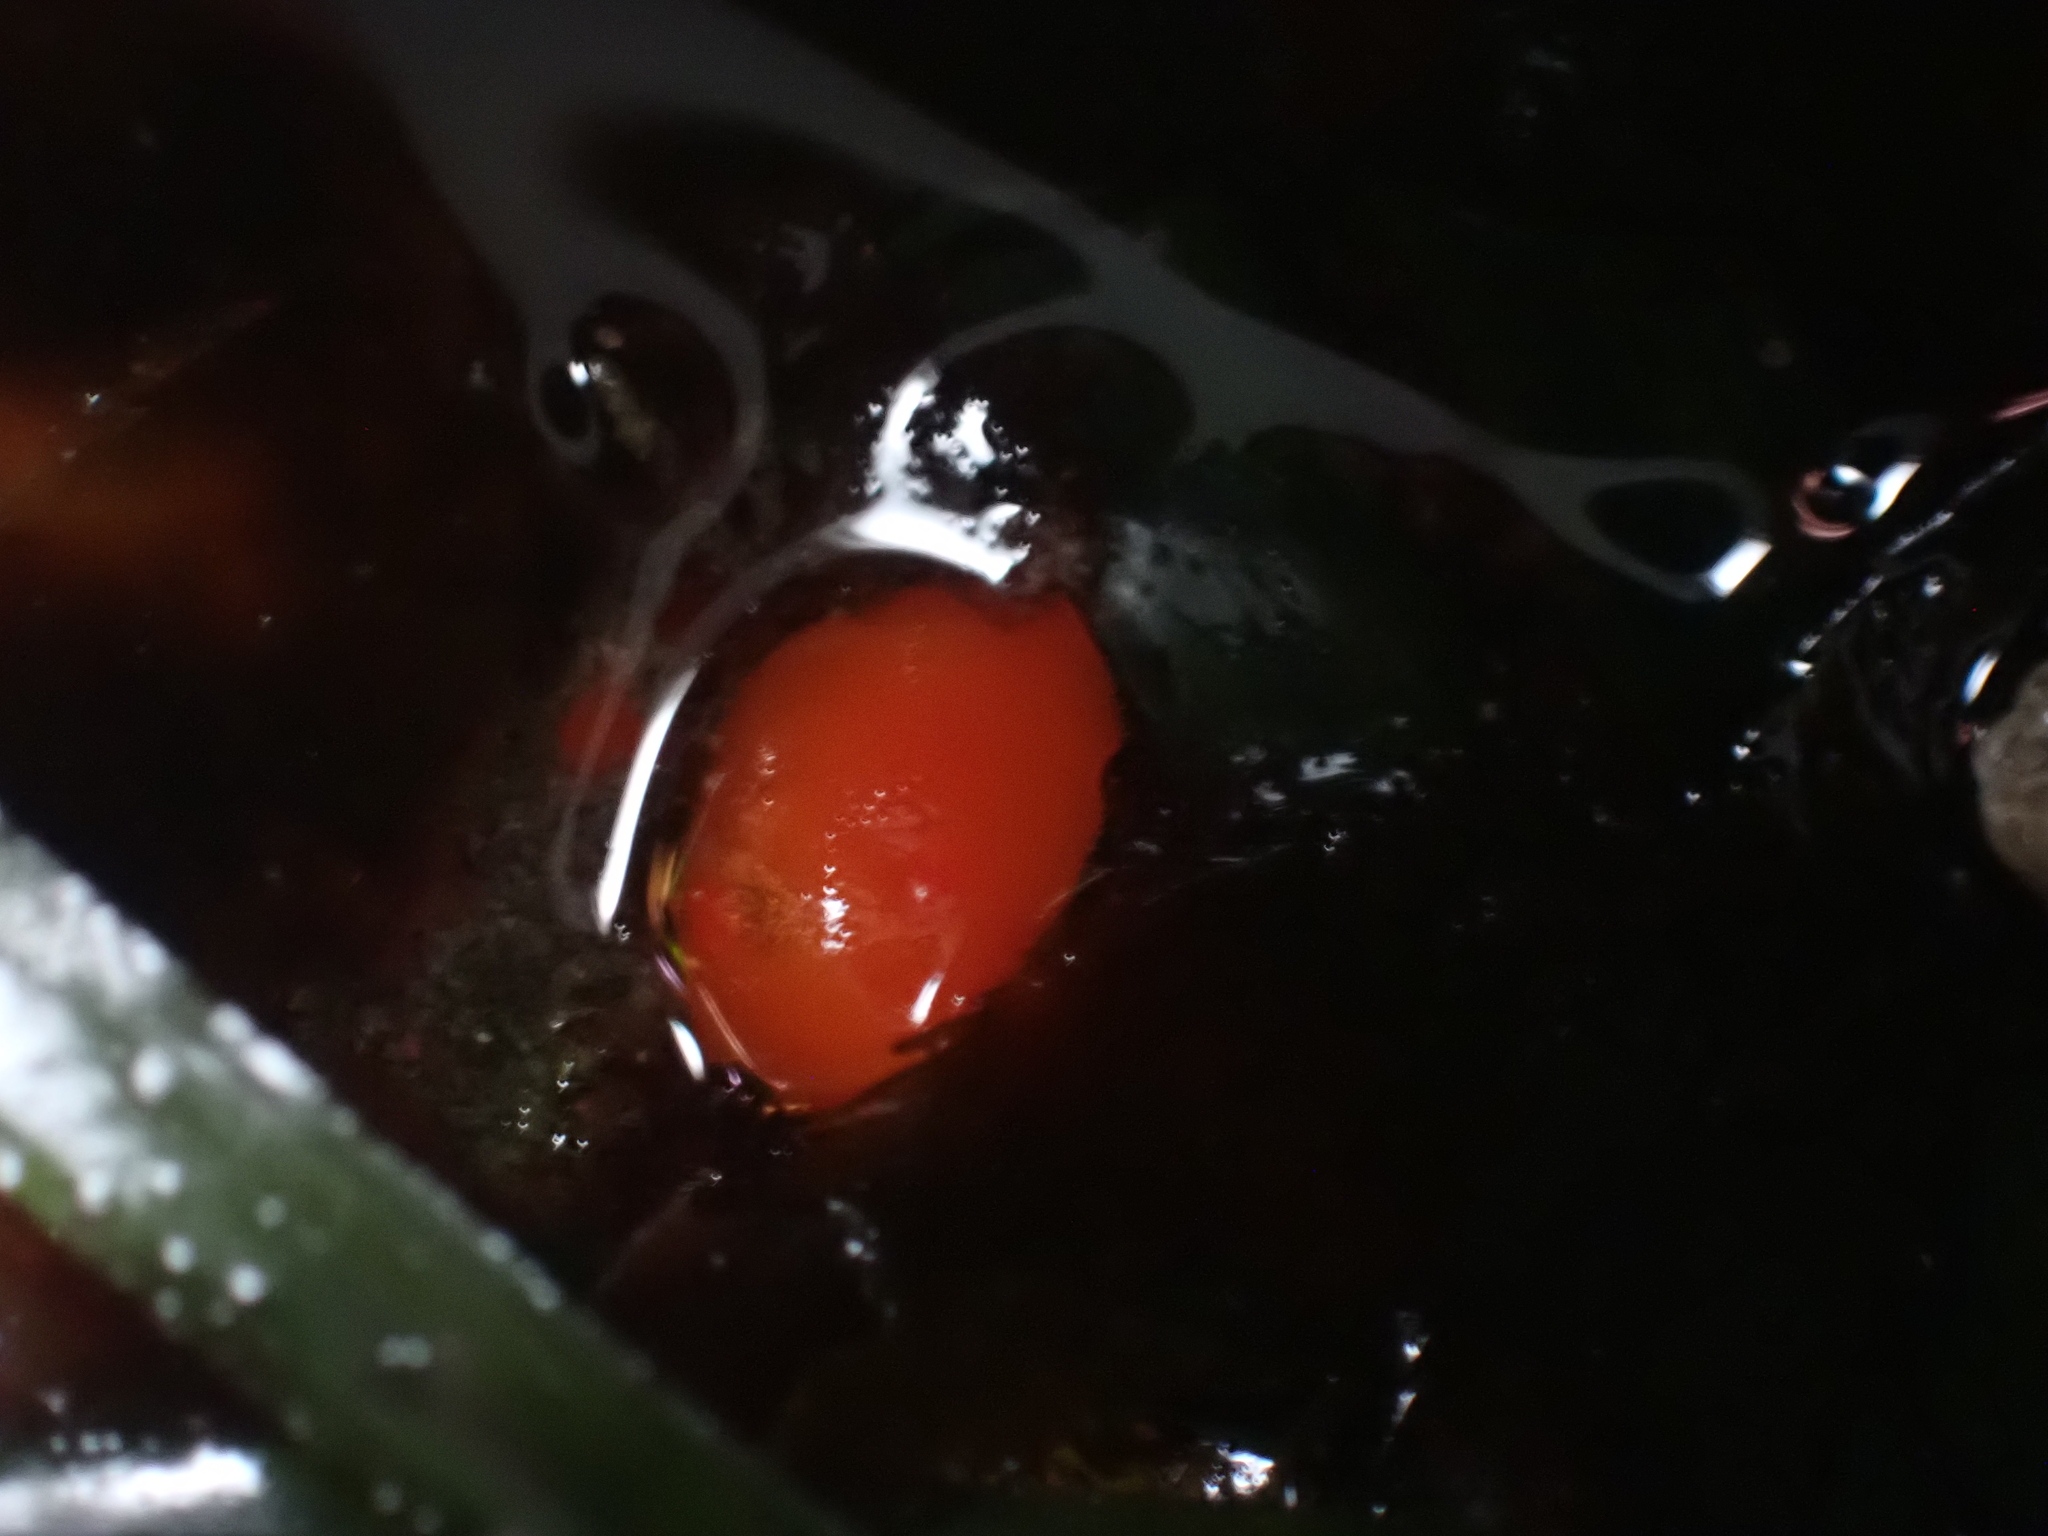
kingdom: Animalia
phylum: Mollusca
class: Gastropoda
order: Nudibranchia
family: Discodorididae
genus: Rostanga
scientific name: Rostanga pulchra
